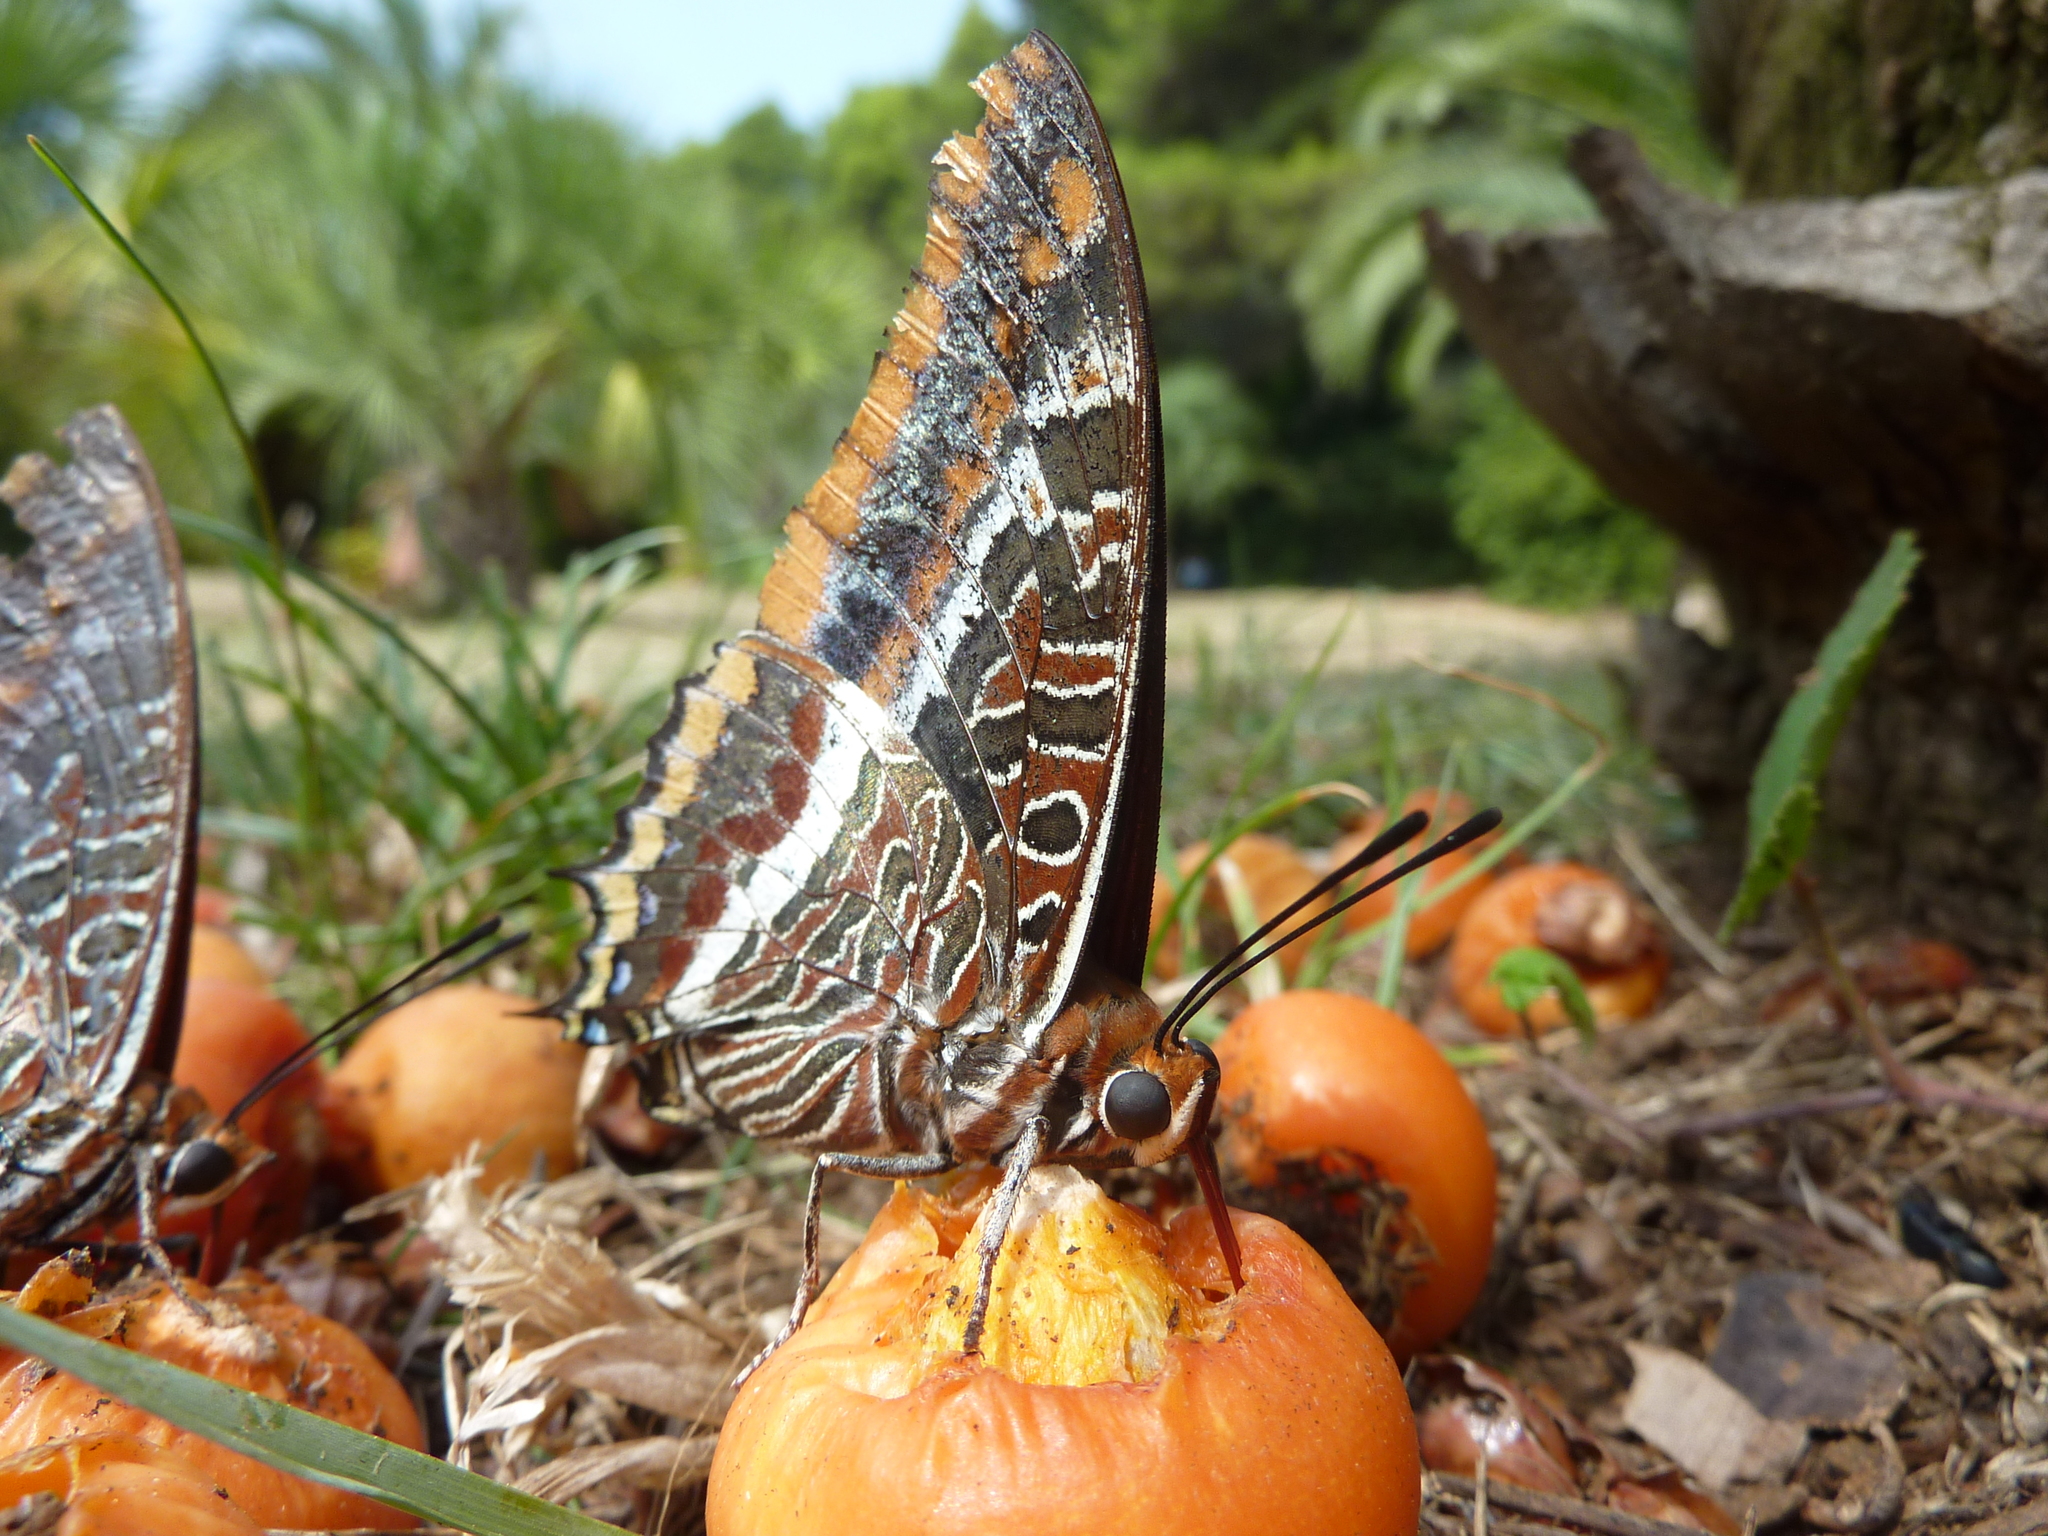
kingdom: Animalia
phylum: Arthropoda
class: Insecta
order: Lepidoptera
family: Nymphalidae
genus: Charaxes
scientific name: Charaxes jasius
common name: Two tailed pasha
